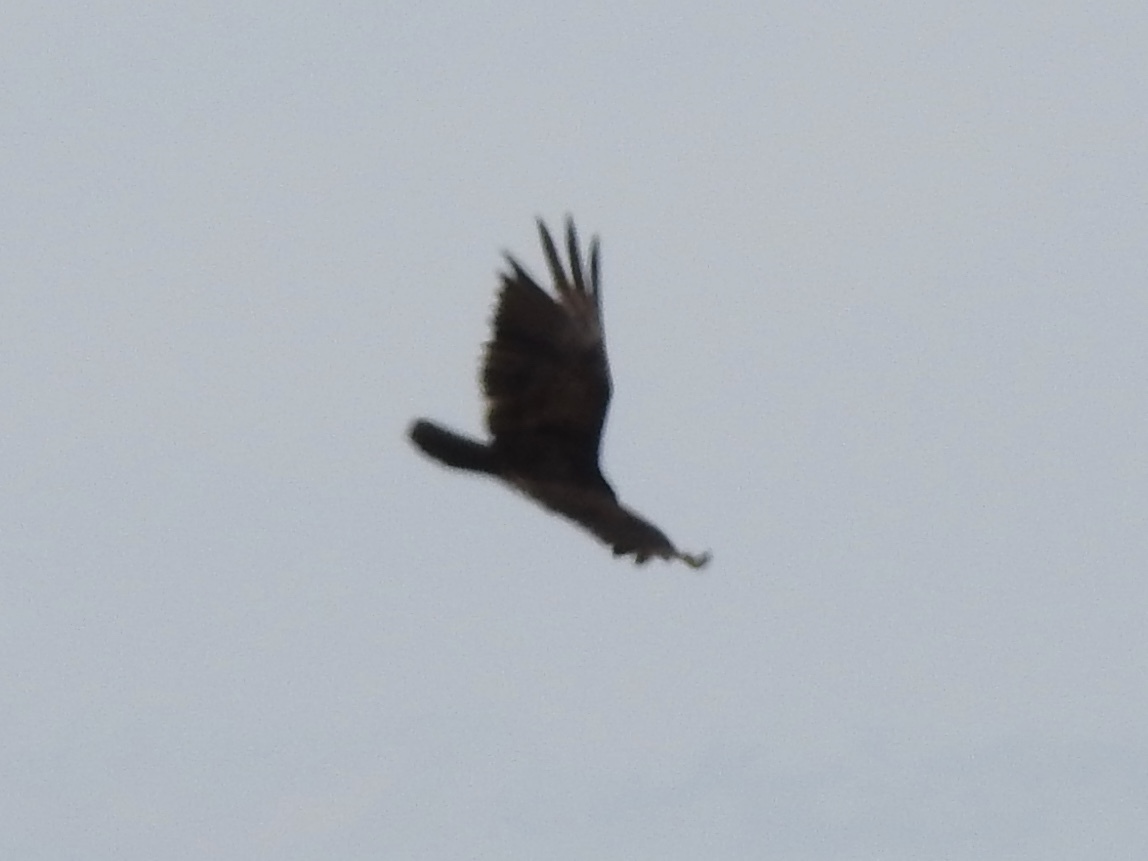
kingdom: Animalia
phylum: Chordata
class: Aves
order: Accipitriformes
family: Cathartidae
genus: Cathartes
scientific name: Cathartes aura
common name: Turkey vulture
